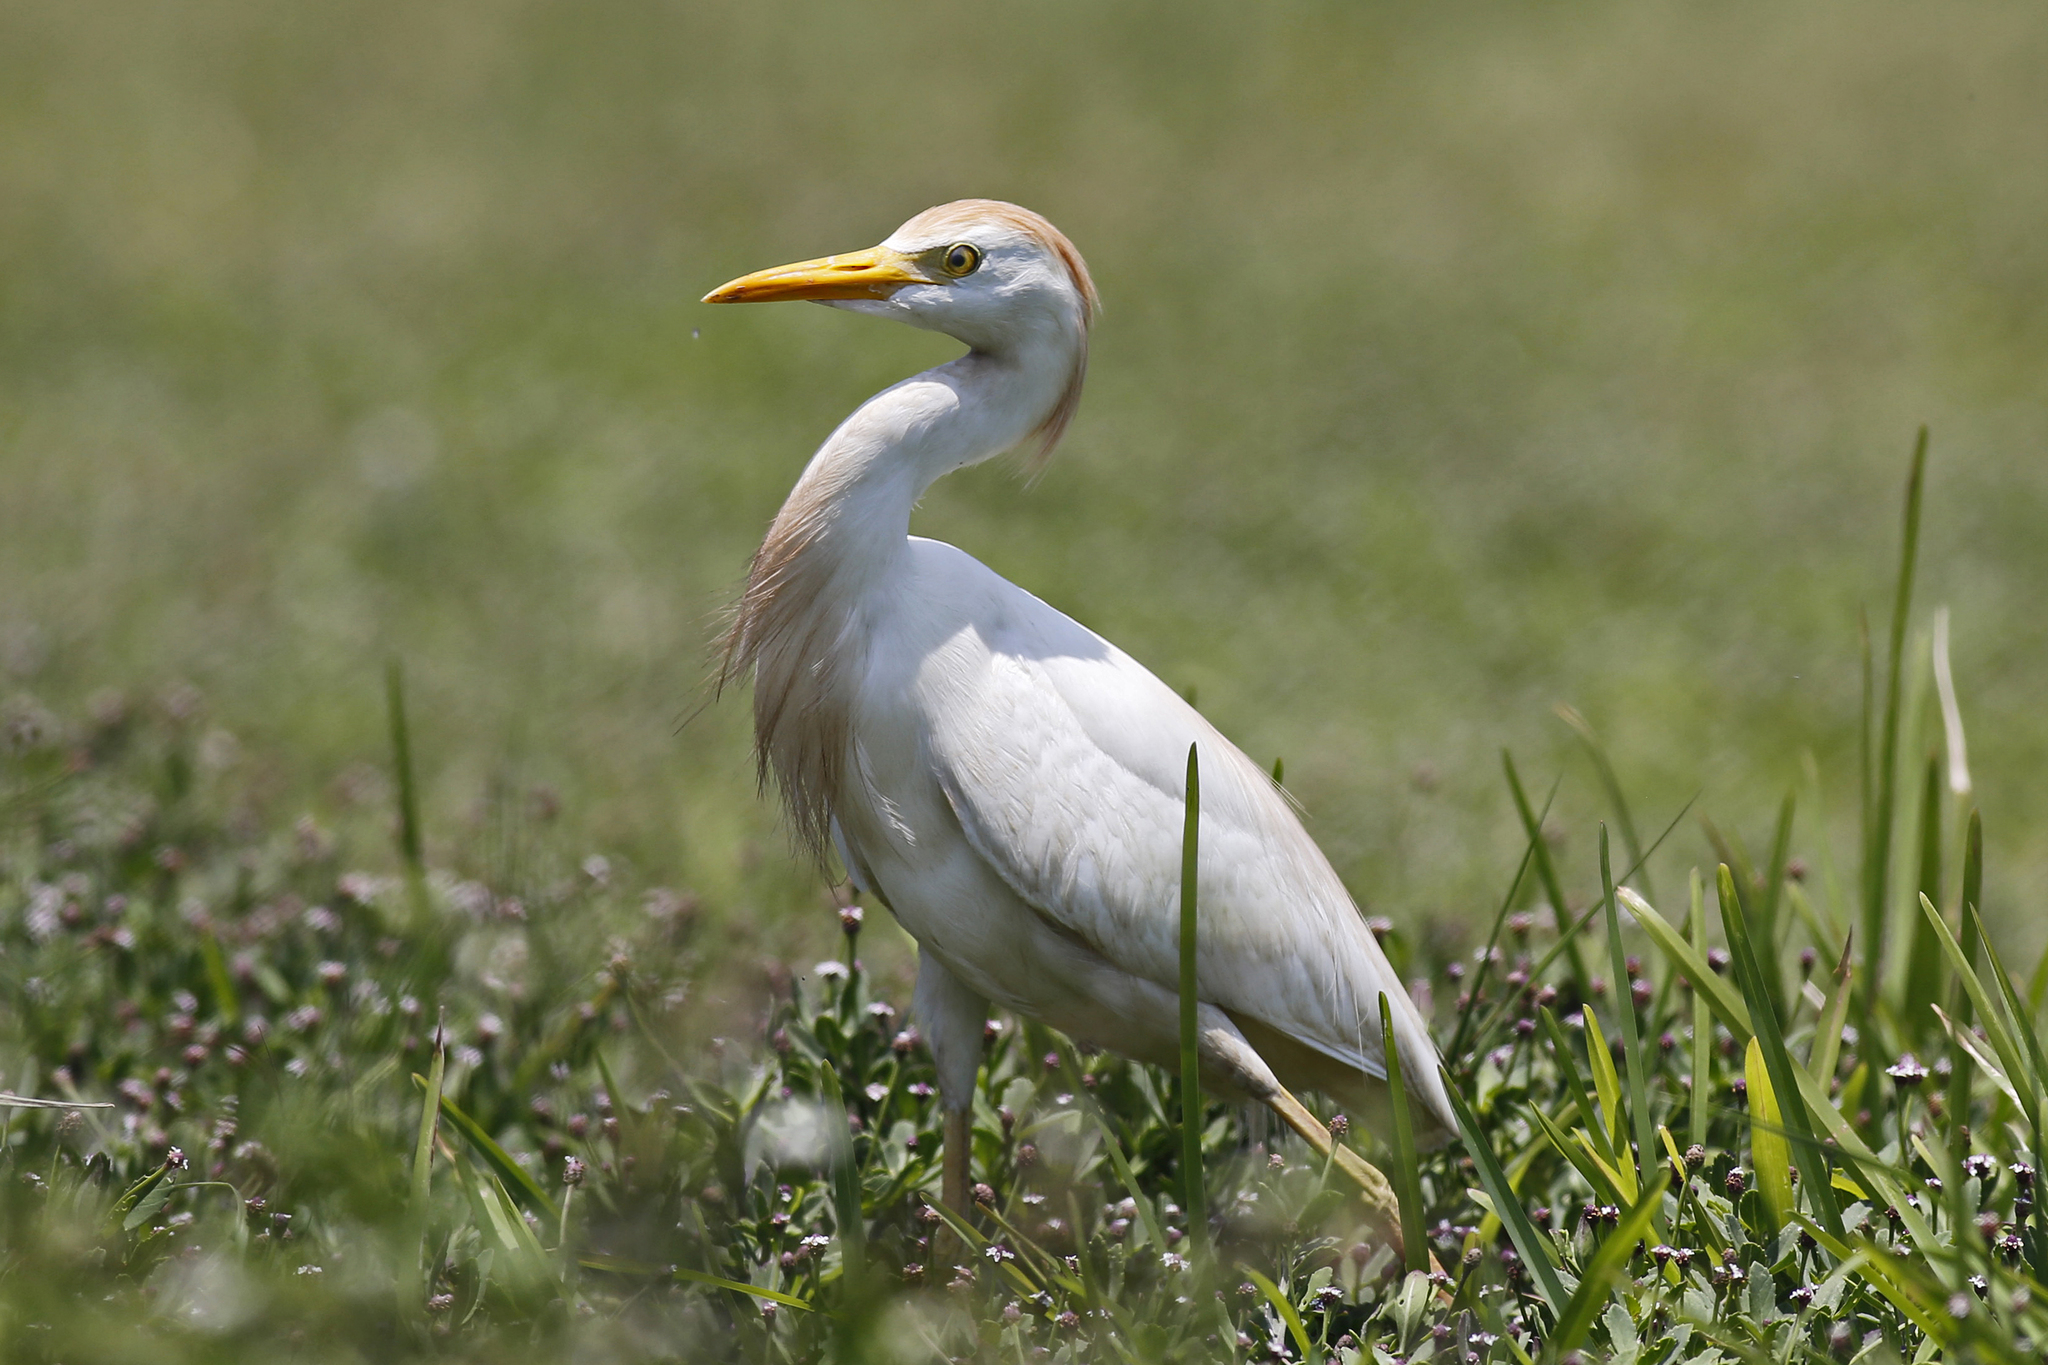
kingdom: Animalia
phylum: Chordata
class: Aves
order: Pelecaniformes
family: Ardeidae
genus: Bubulcus
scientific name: Bubulcus ibis
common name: Cattle egret
